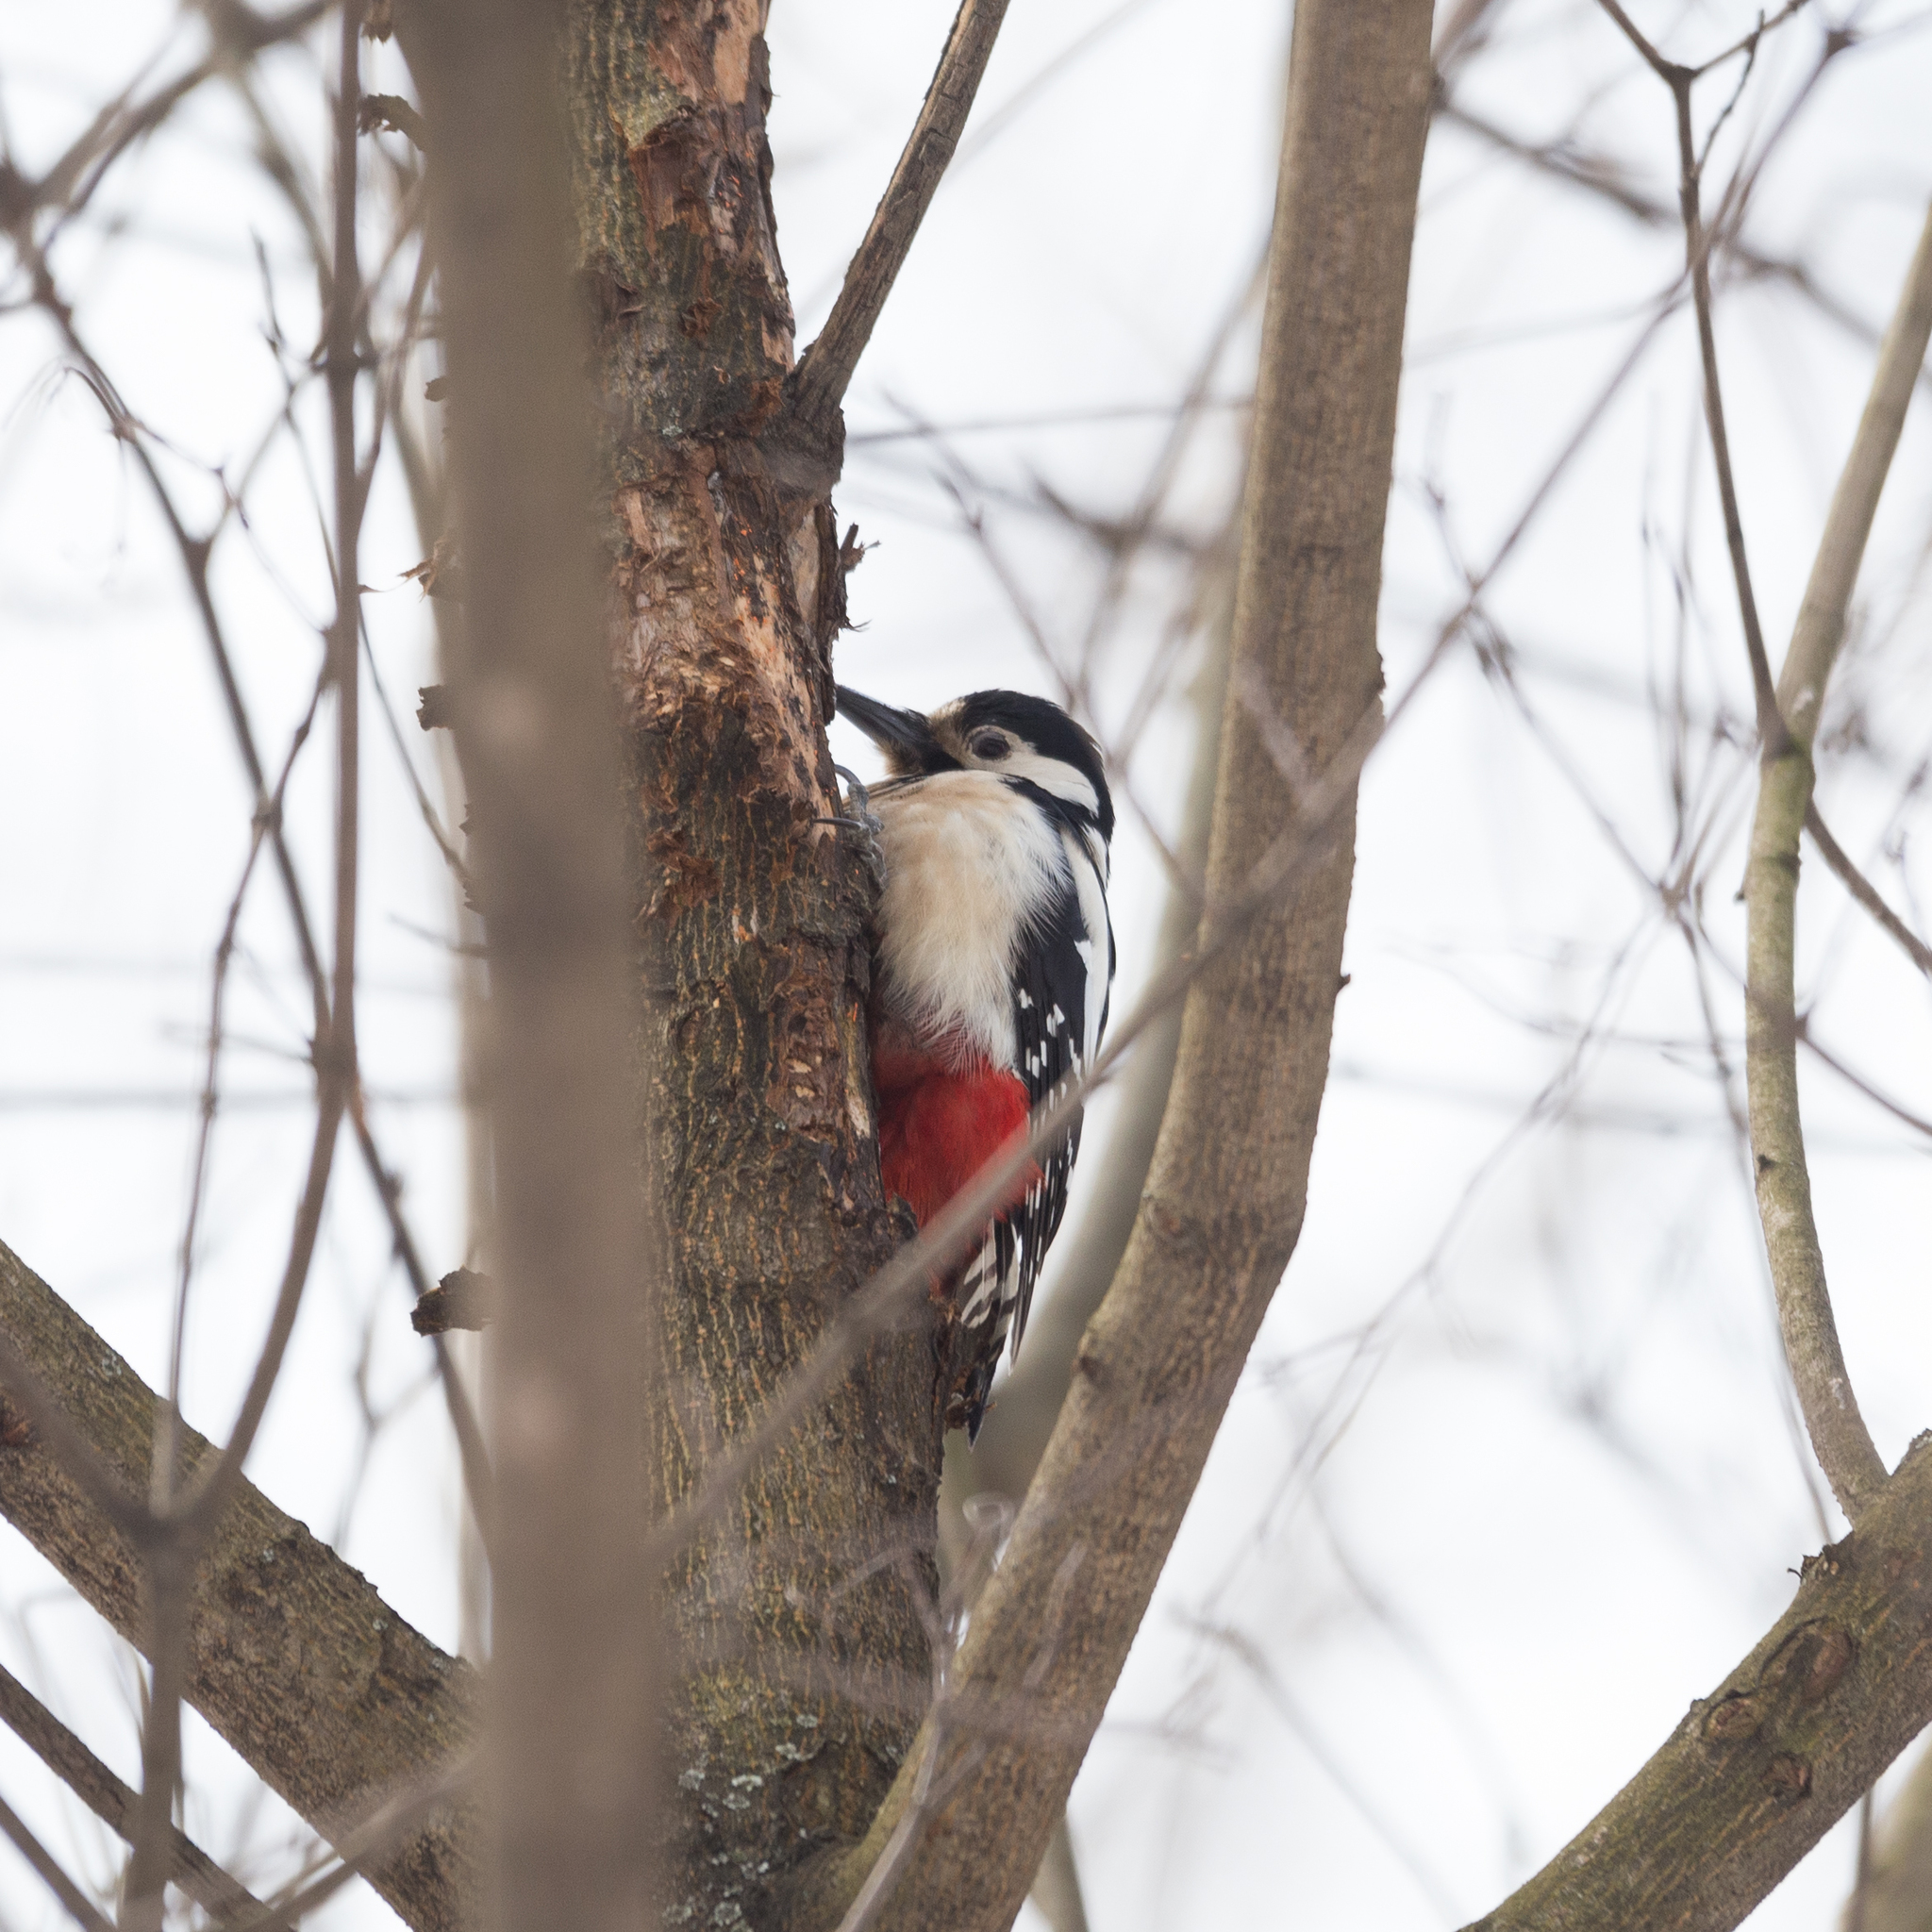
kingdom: Animalia
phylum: Chordata
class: Aves
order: Piciformes
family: Picidae
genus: Dendrocopos
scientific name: Dendrocopos major
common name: Great spotted woodpecker
